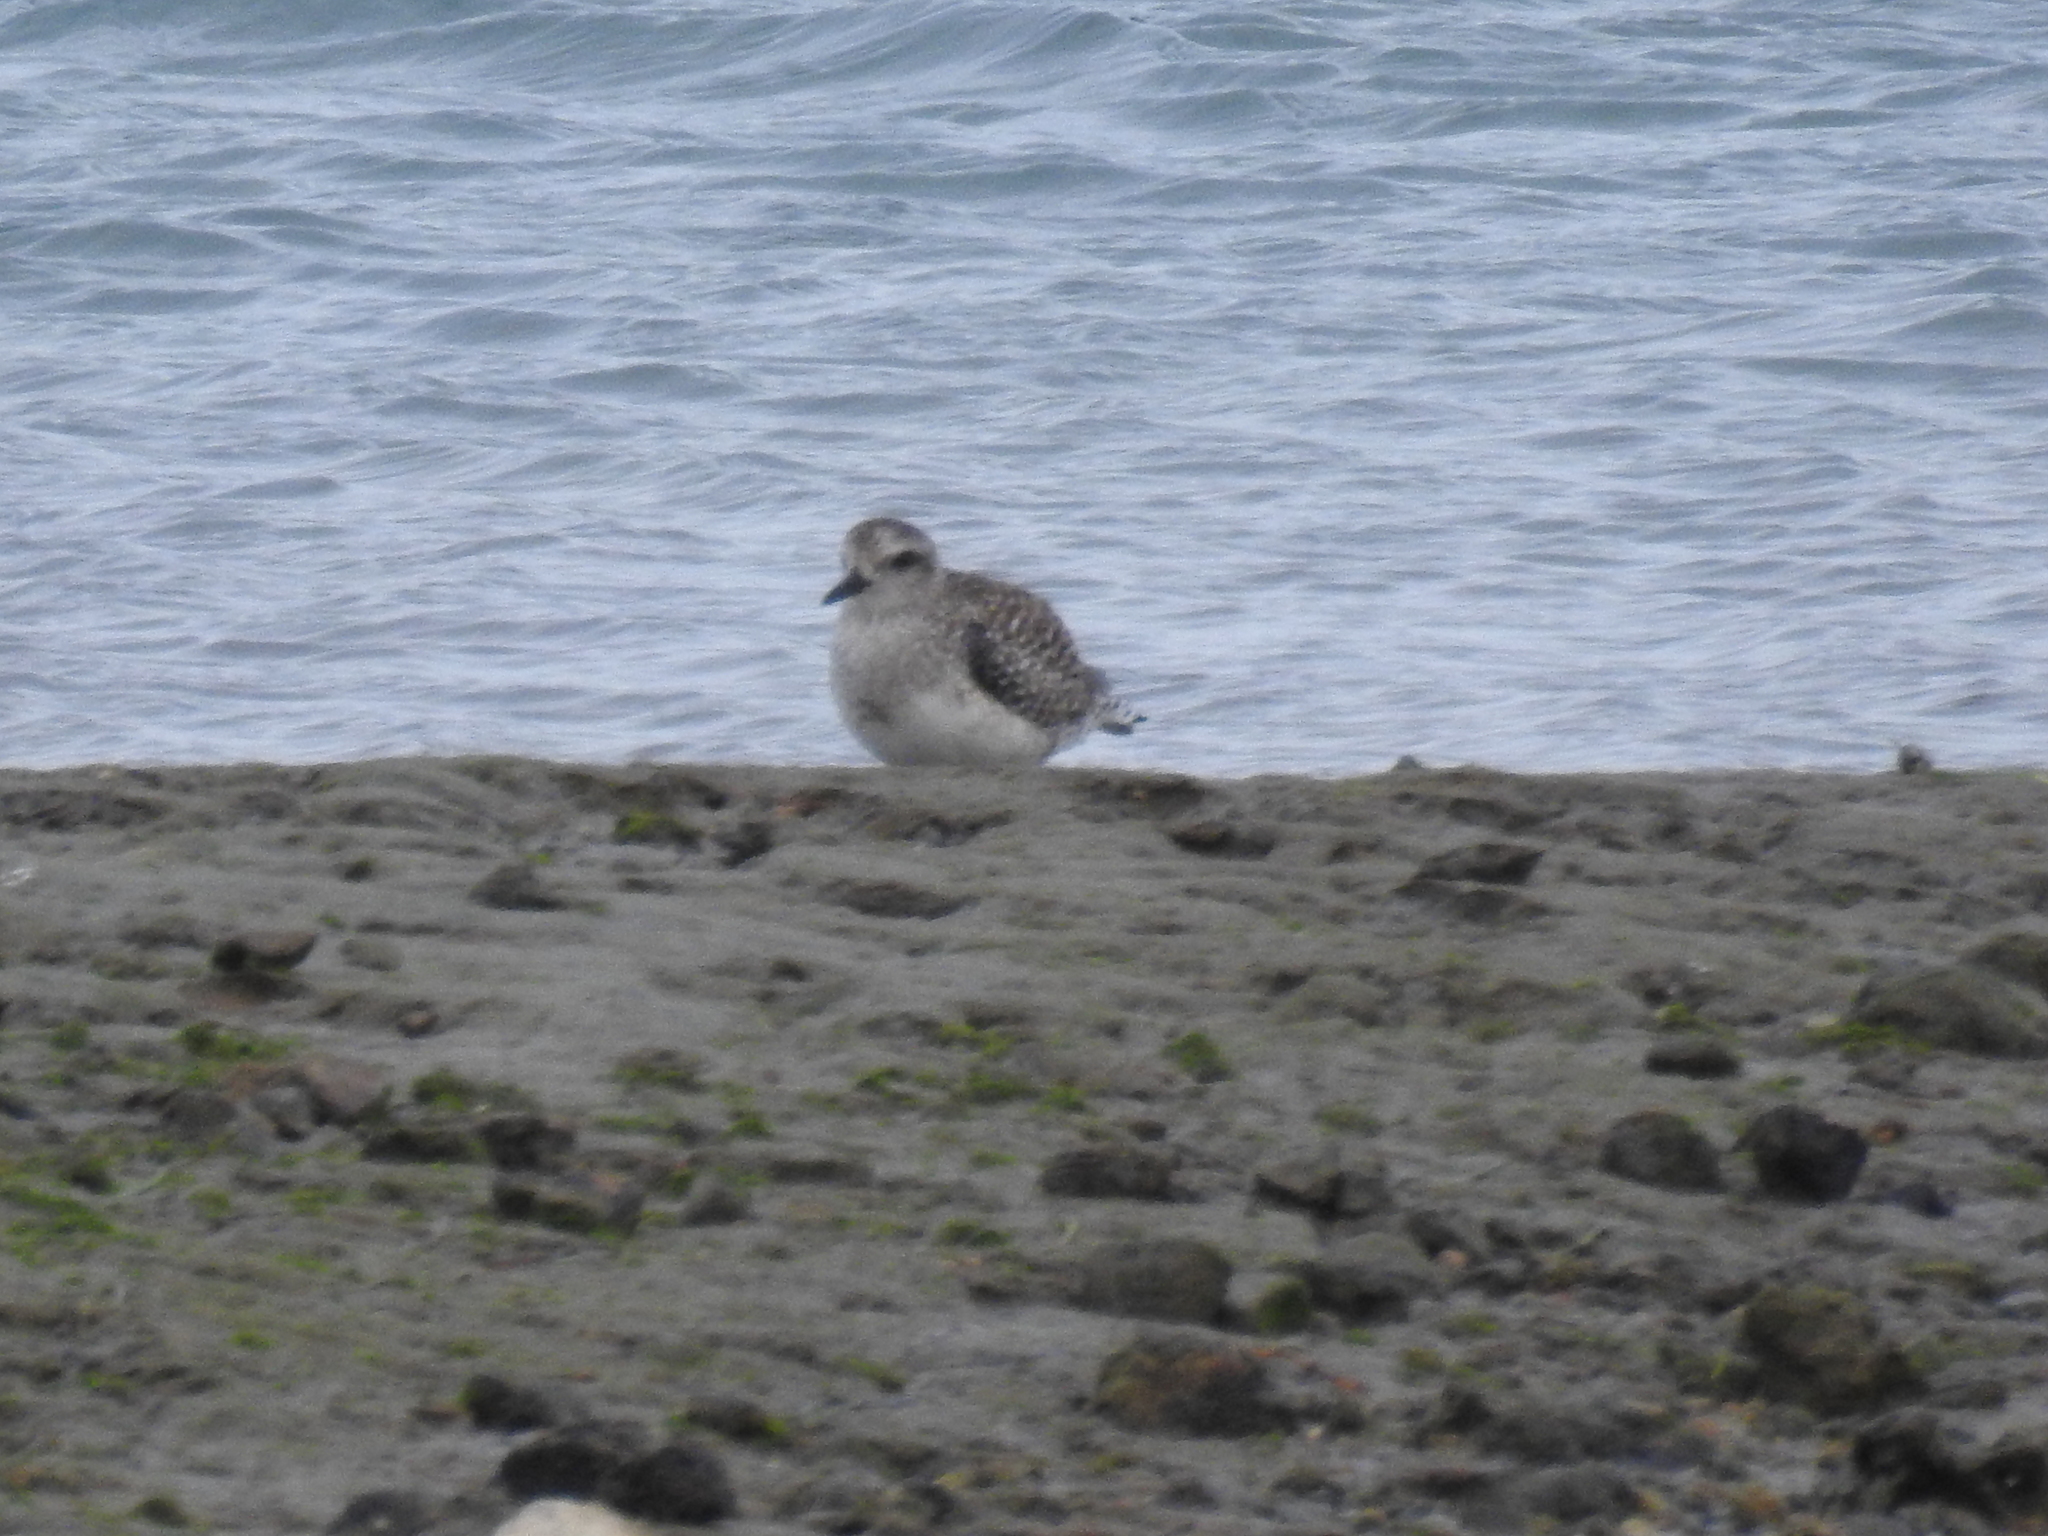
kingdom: Animalia
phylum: Chordata
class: Aves
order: Charadriiformes
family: Charadriidae
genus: Pluvialis
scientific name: Pluvialis squatarola
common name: Grey plover
